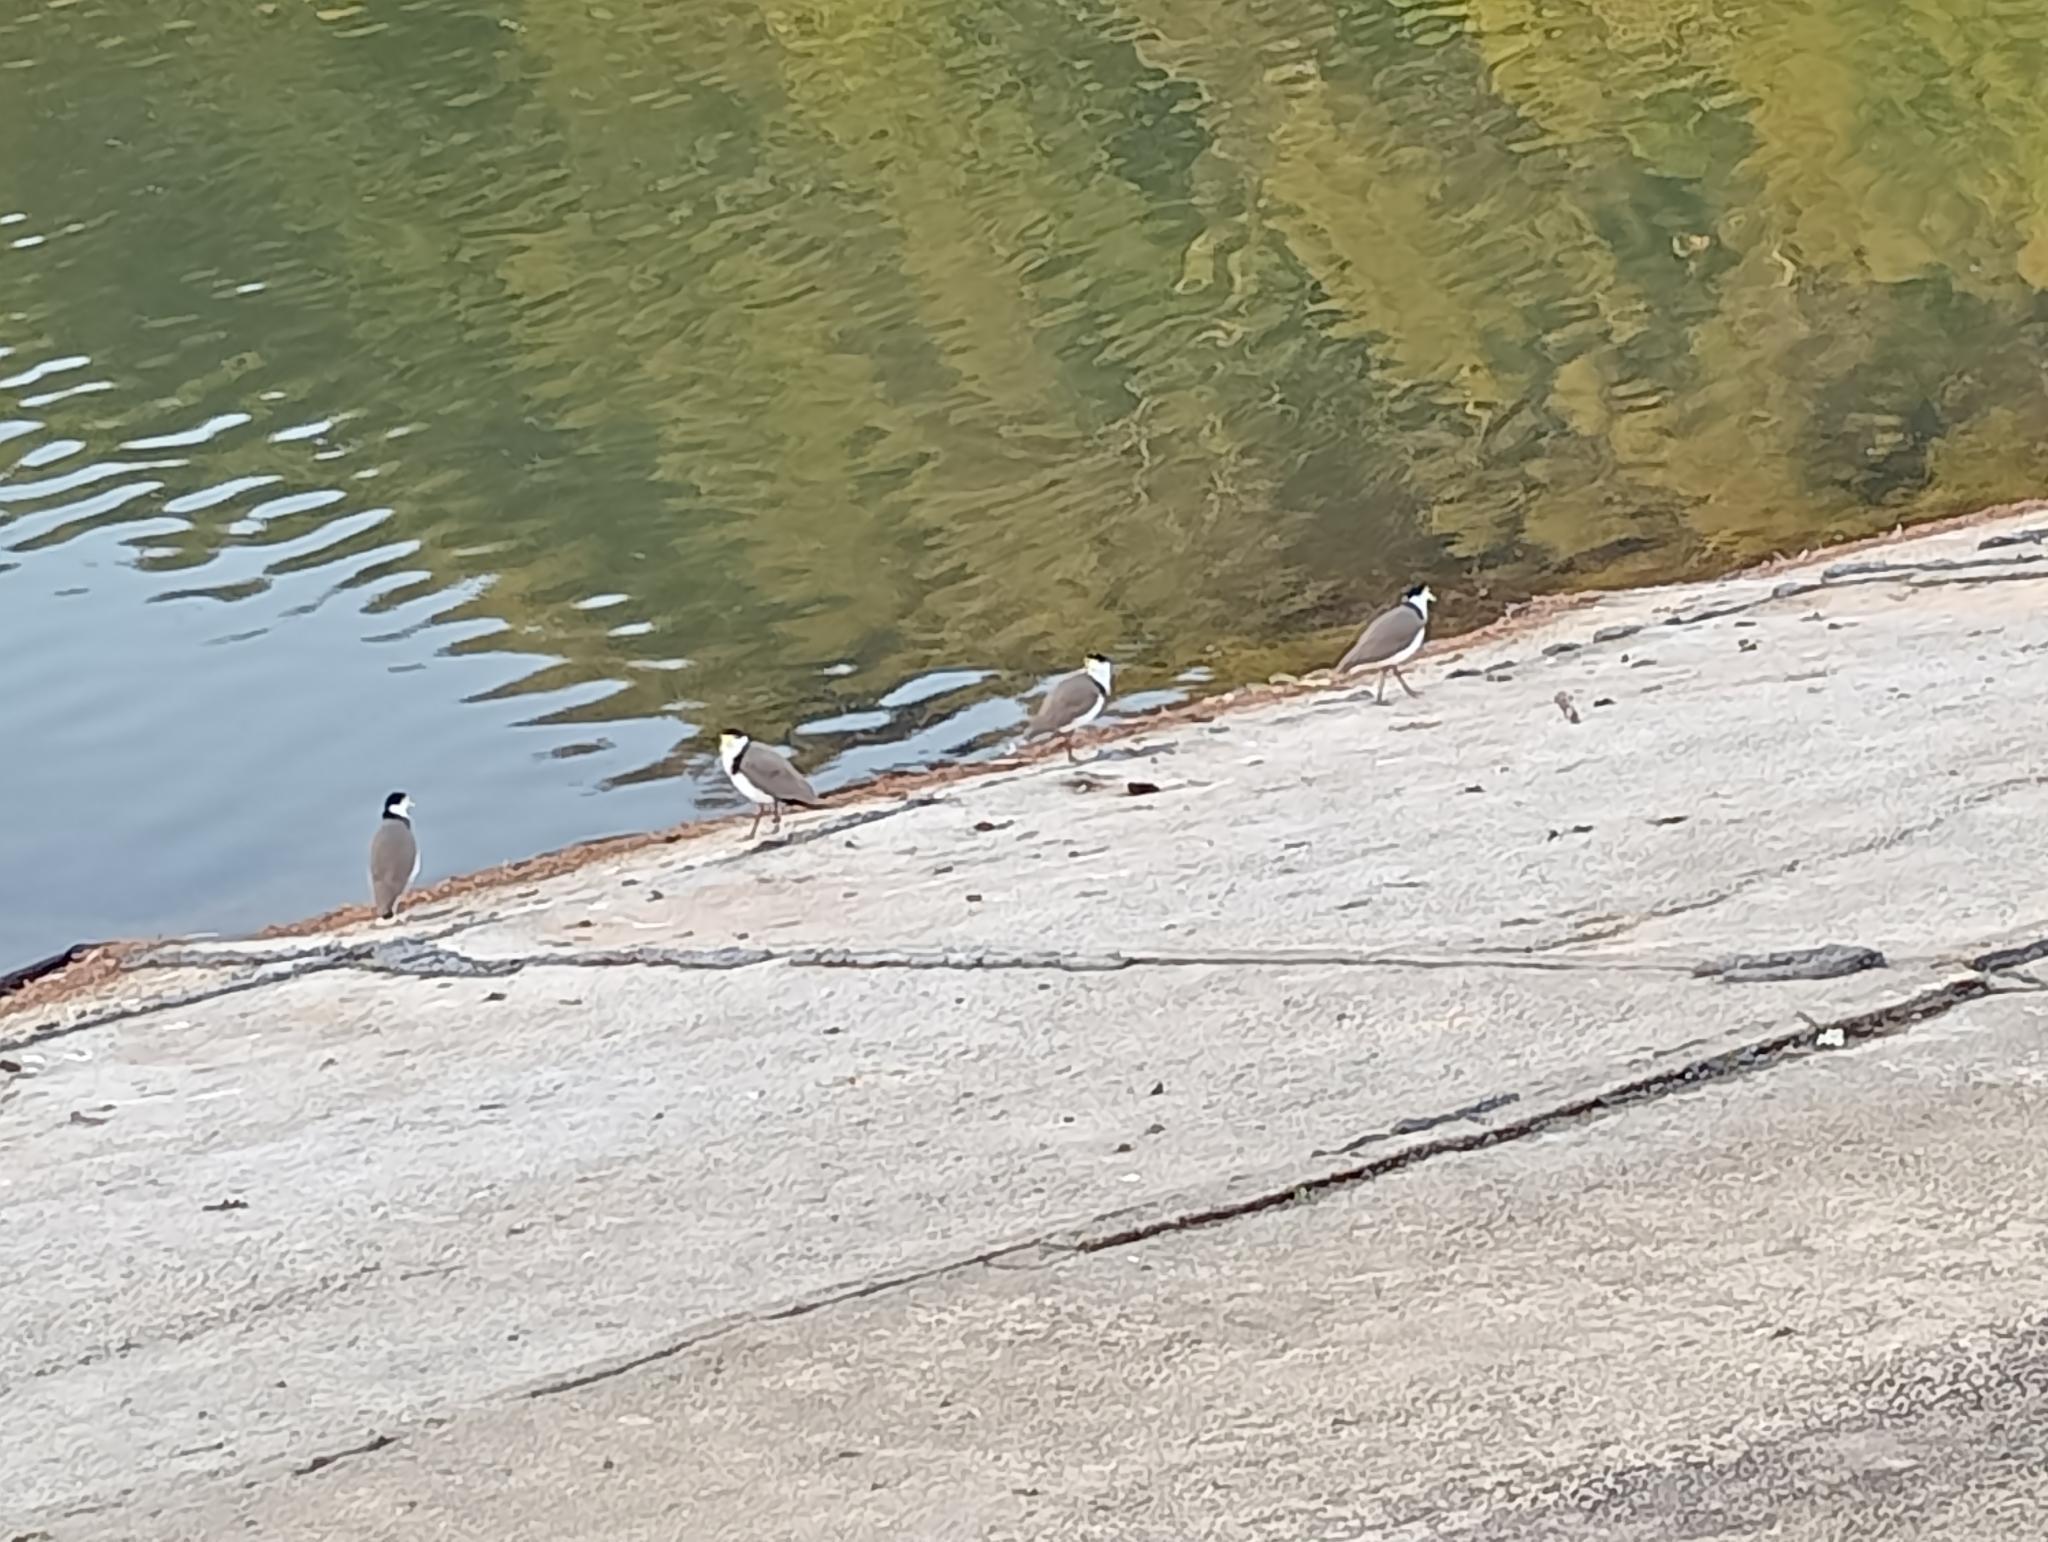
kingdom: Animalia
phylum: Chordata
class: Aves
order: Charadriiformes
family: Charadriidae
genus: Vanellus
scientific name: Vanellus miles
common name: Masked lapwing
